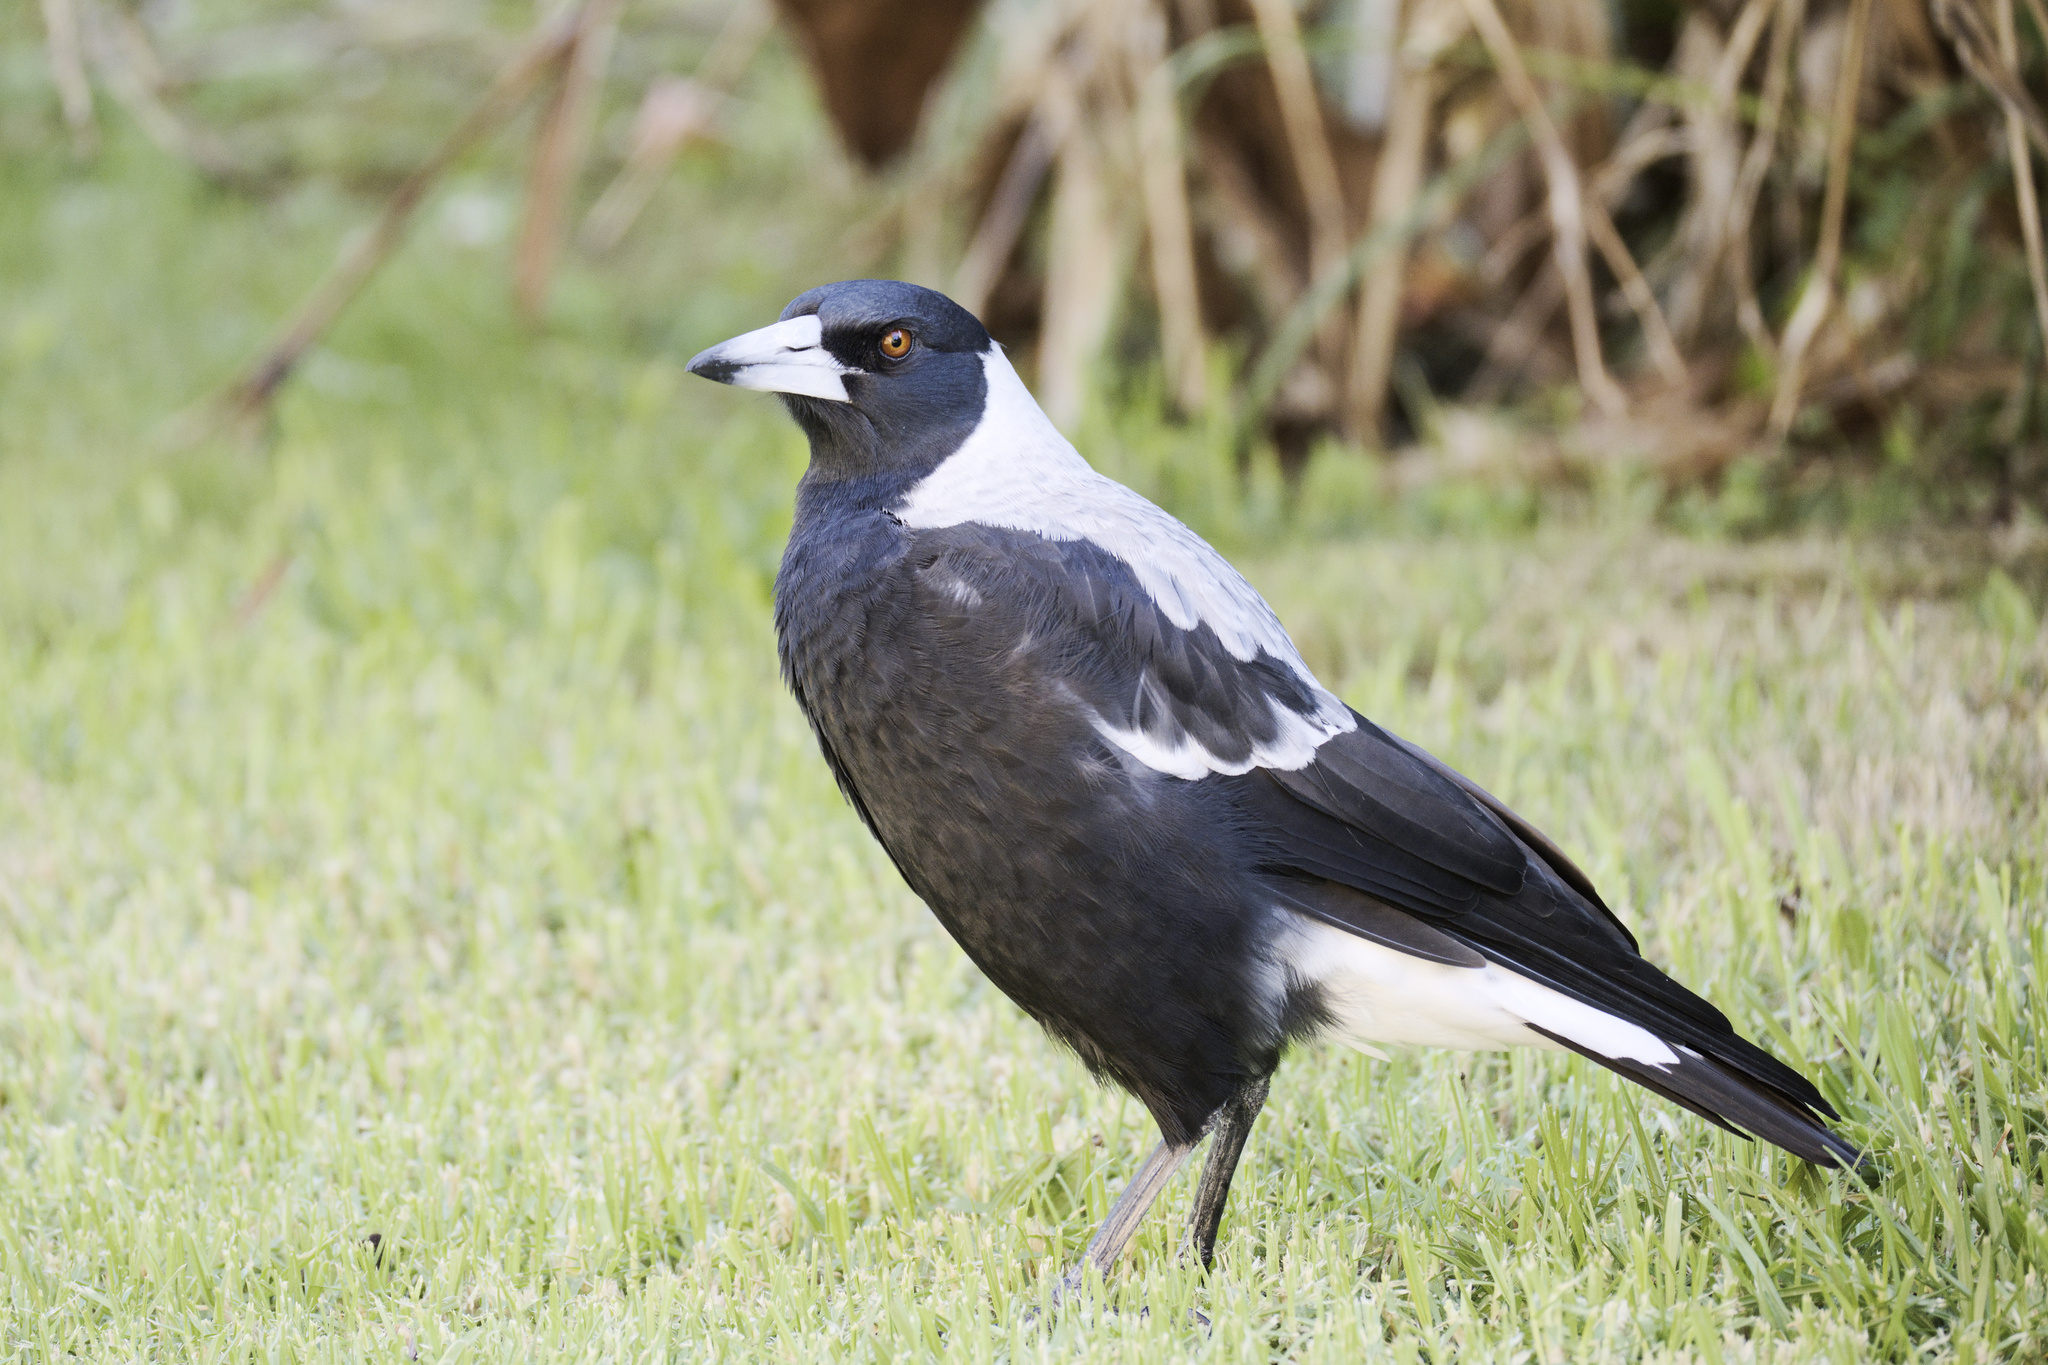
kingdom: Animalia
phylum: Chordata
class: Aves
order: Passeriformes
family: Cracticidae
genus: Gymnorhina
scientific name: Gymnorhina tibicen
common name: Australian magpie
